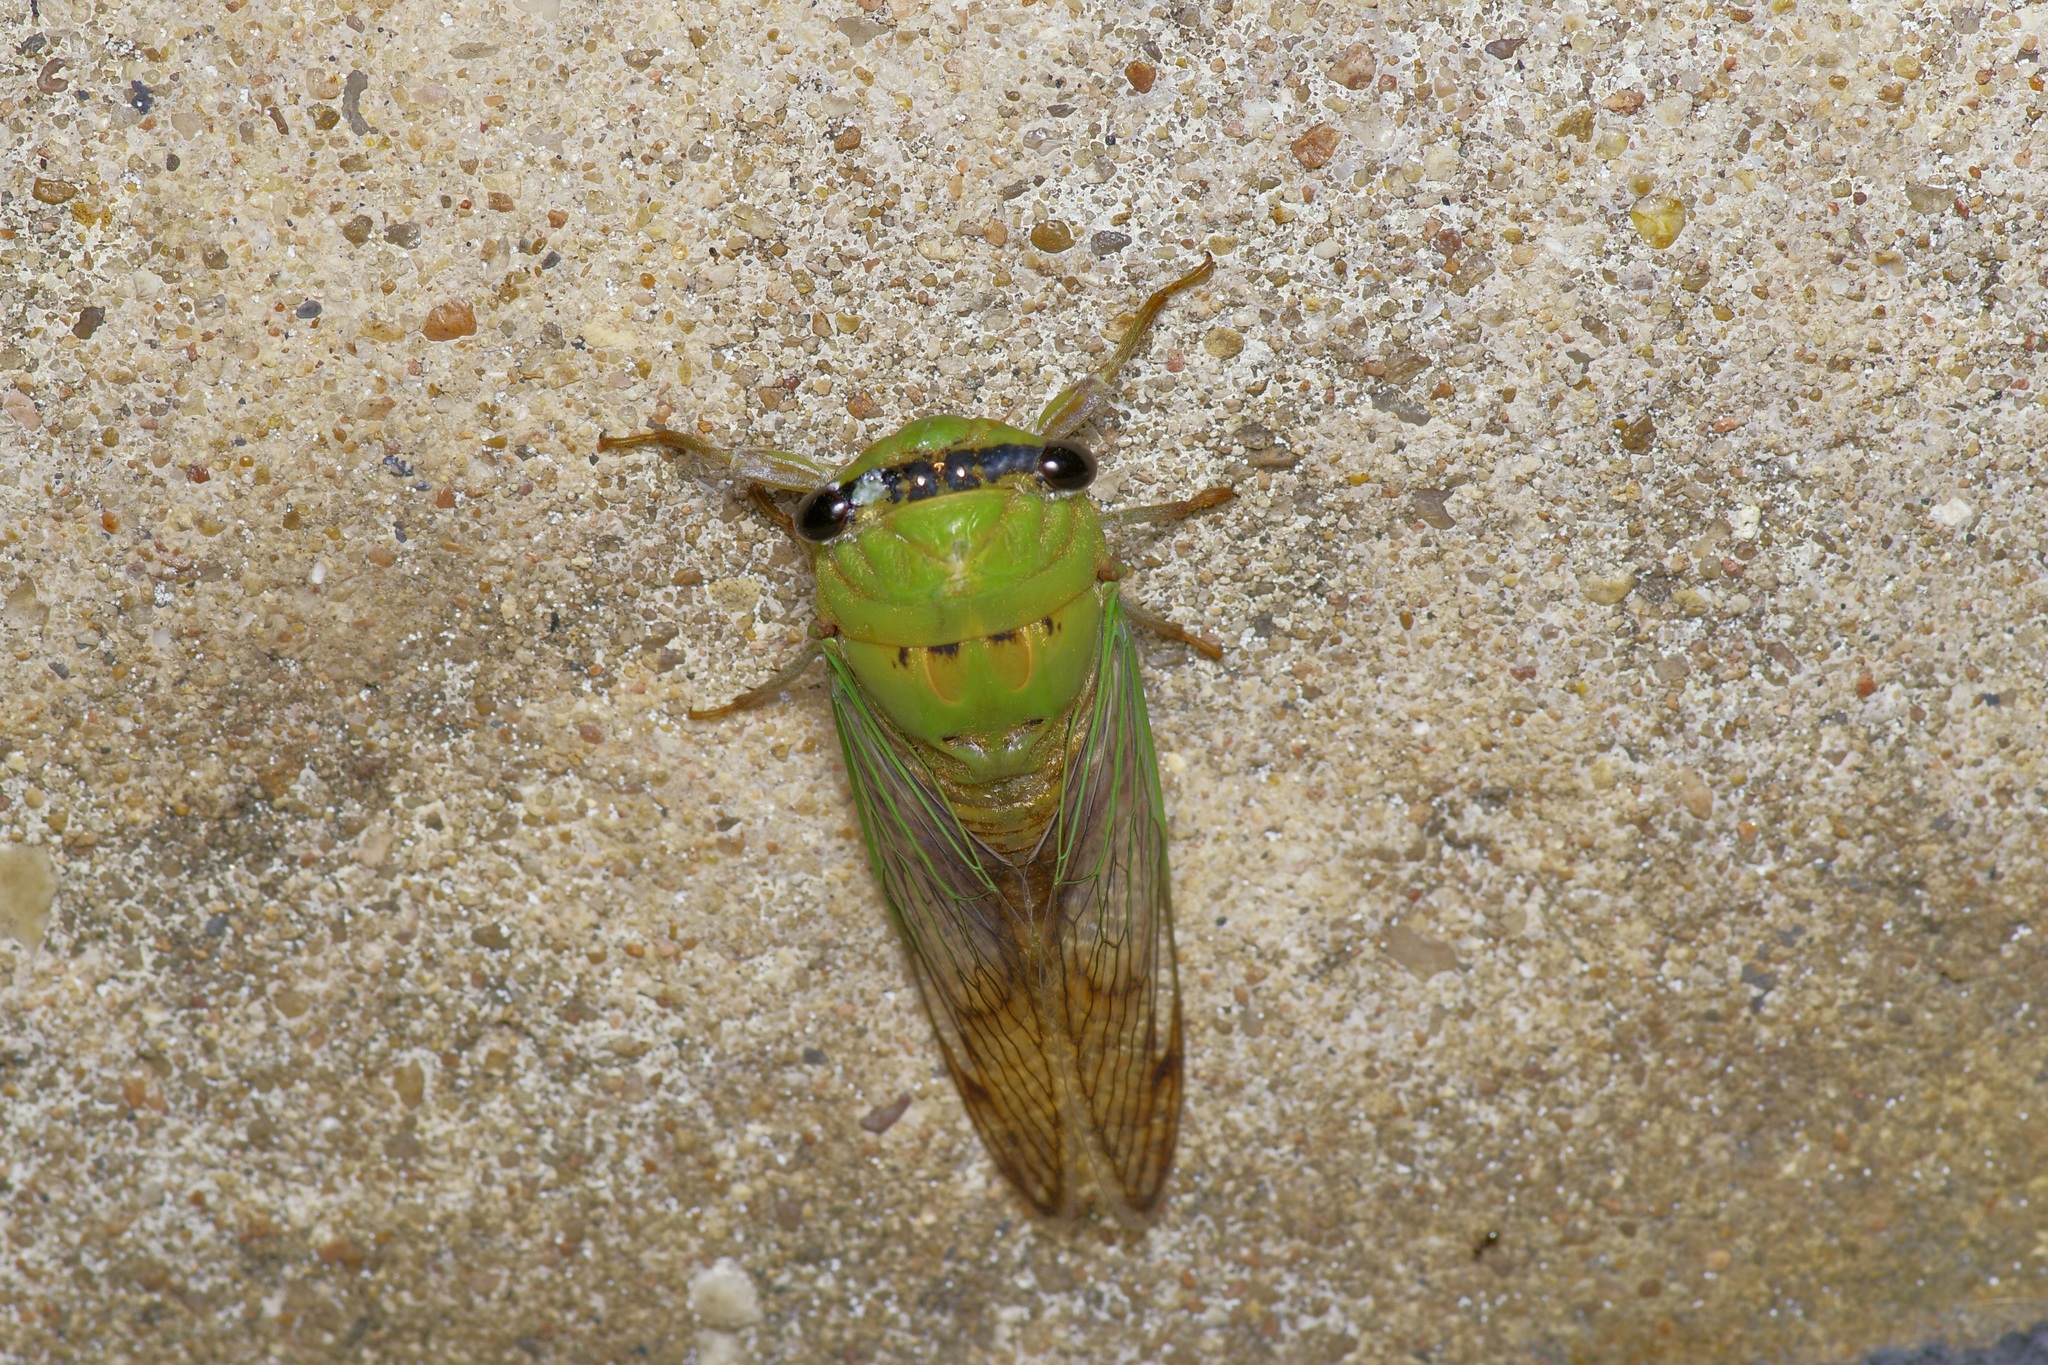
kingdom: Animalia
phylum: Arthropoda
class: Insecta
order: Hemiptera
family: Cicadidae
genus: Neotibicen
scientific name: Neotibicen superbus
